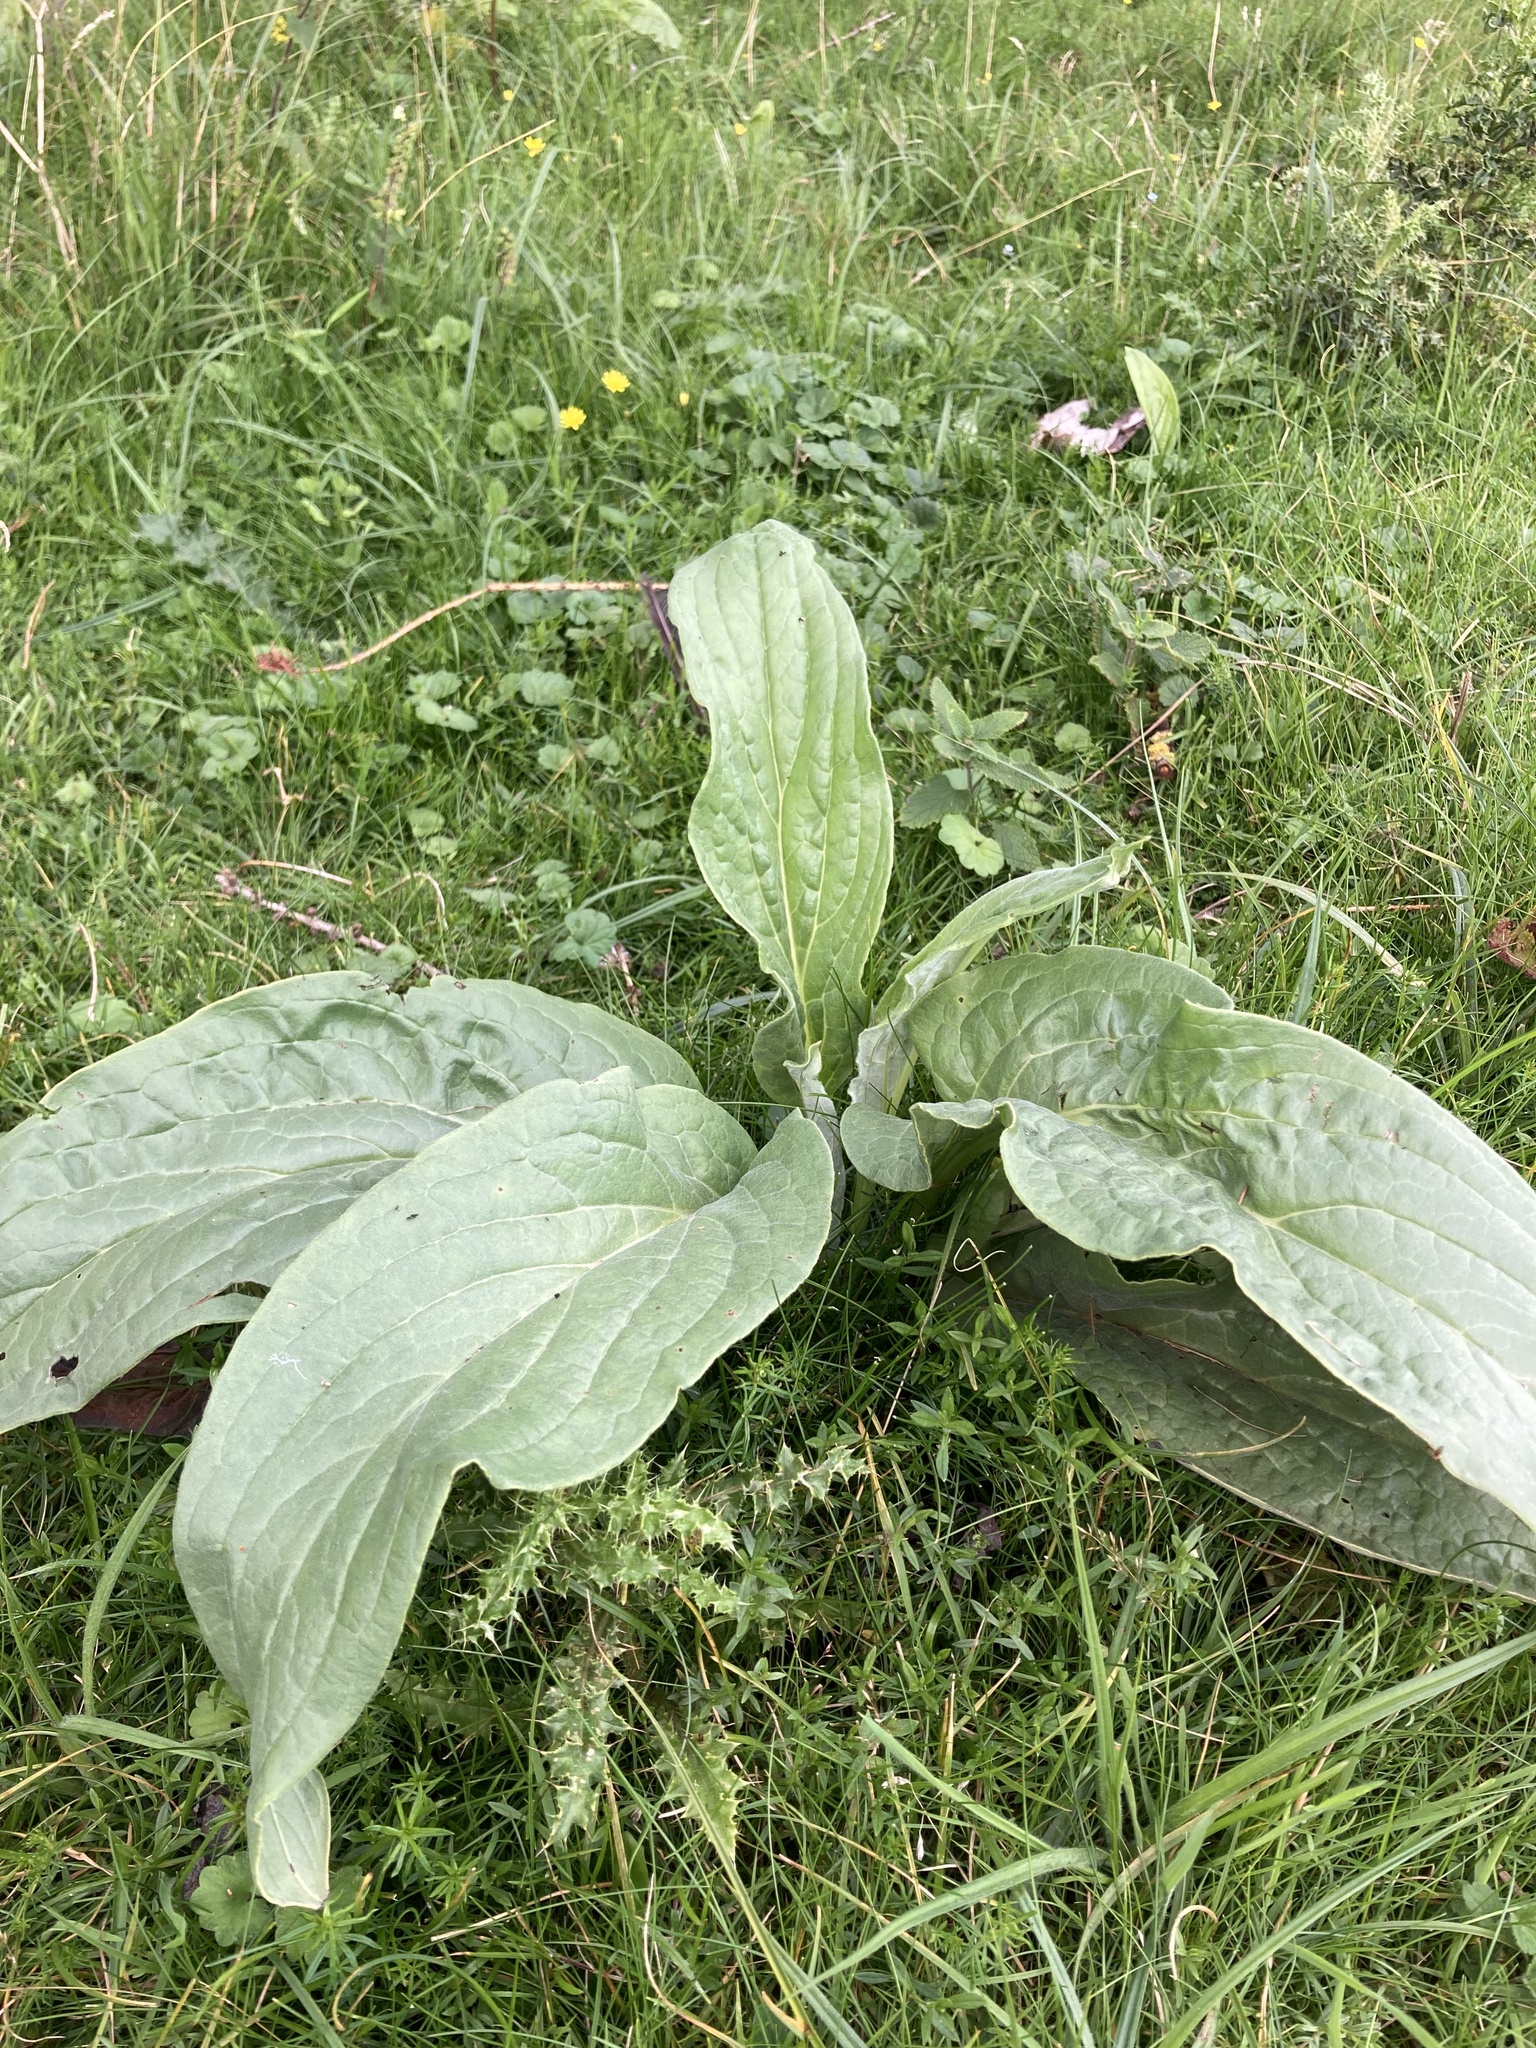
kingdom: Plantae
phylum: Tracheophyta
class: Magnoliopsida
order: Boraginales
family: Boraginaceae
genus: Cynoglossum
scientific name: Cynoglossum officinale
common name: Hound's-tongue
